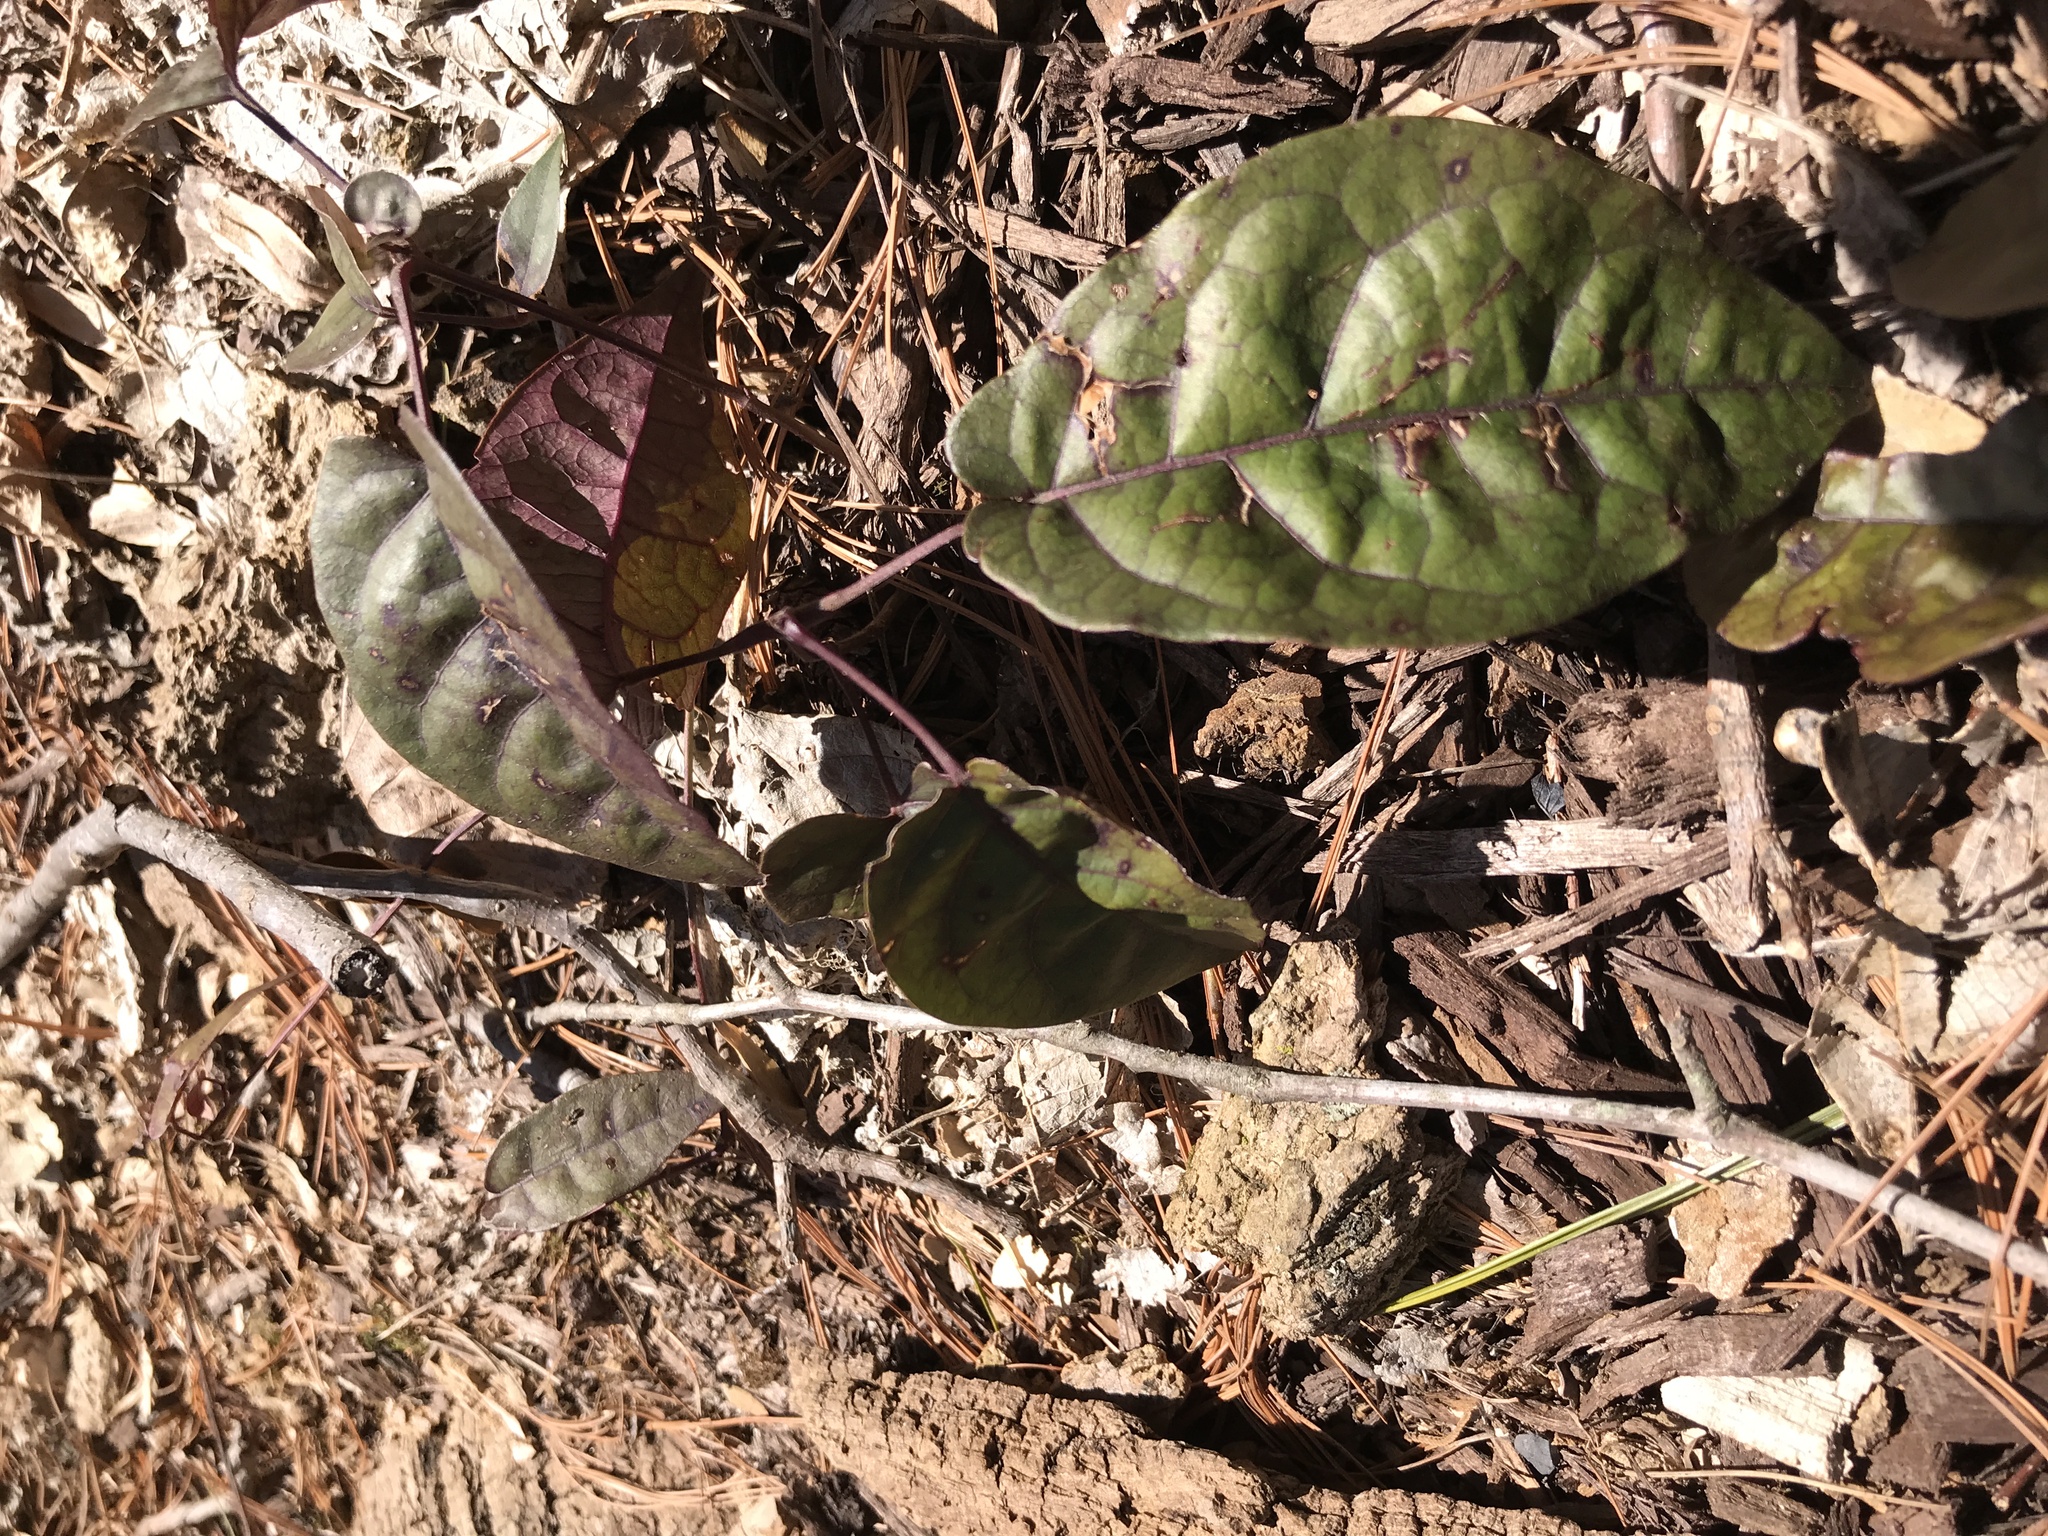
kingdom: Plantae
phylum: Tracheophyta
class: Magnoliopsida
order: Lamiales
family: Bignoniaceae
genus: Bignonia
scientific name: Bignonia capreolata
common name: Crossvine
